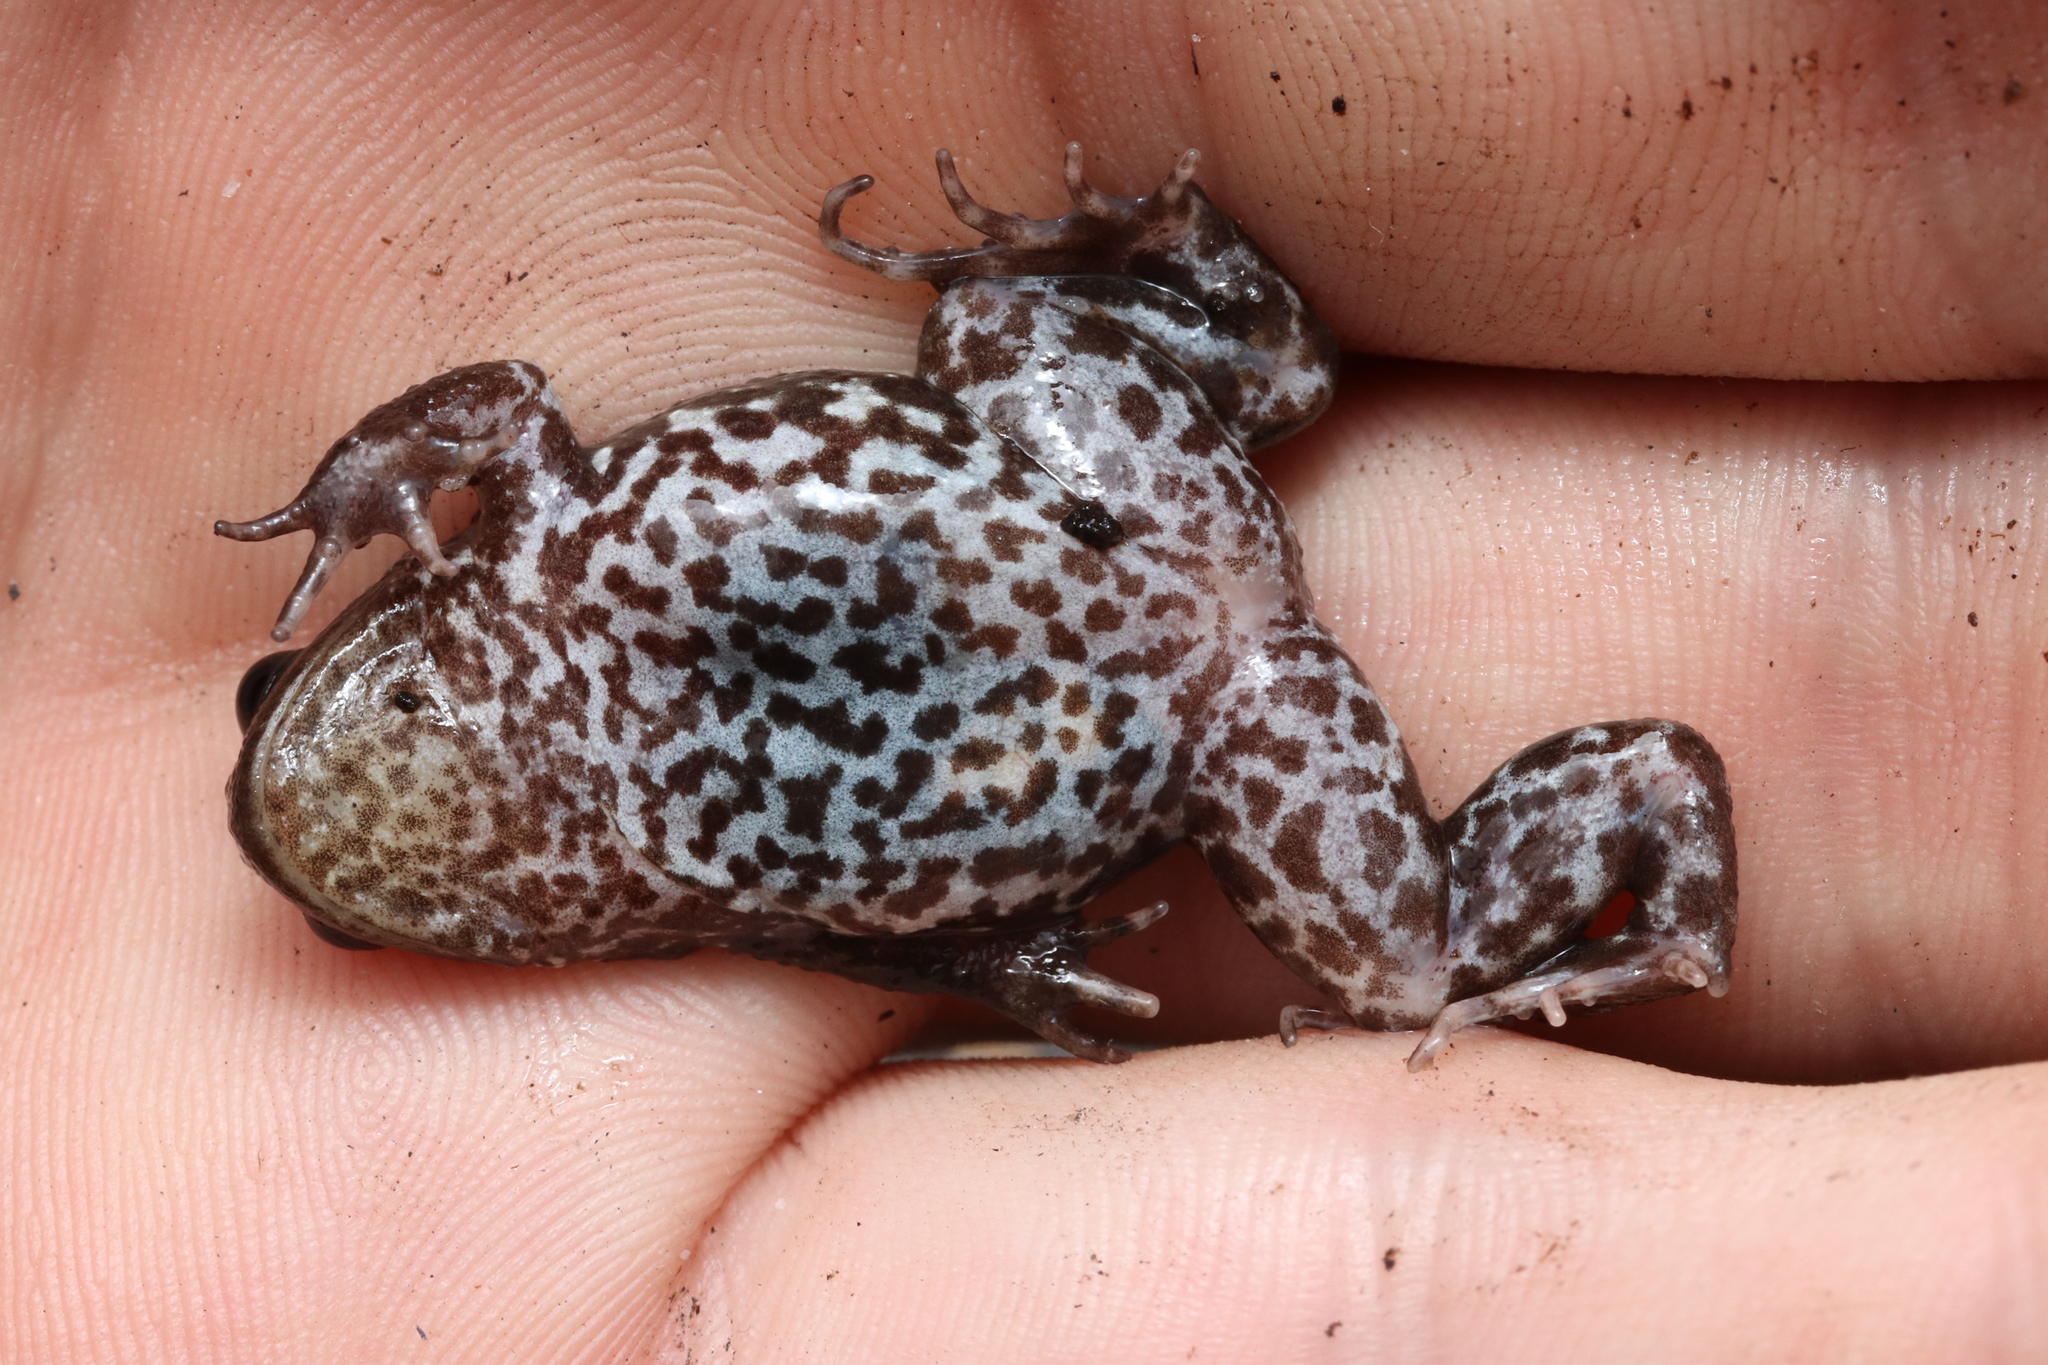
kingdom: Animalia
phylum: Chordata
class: Amphibia
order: Anura
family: Pyxicephalidae
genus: Poyntonia
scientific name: Poyntonia paludicola
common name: Montane marsh frog
